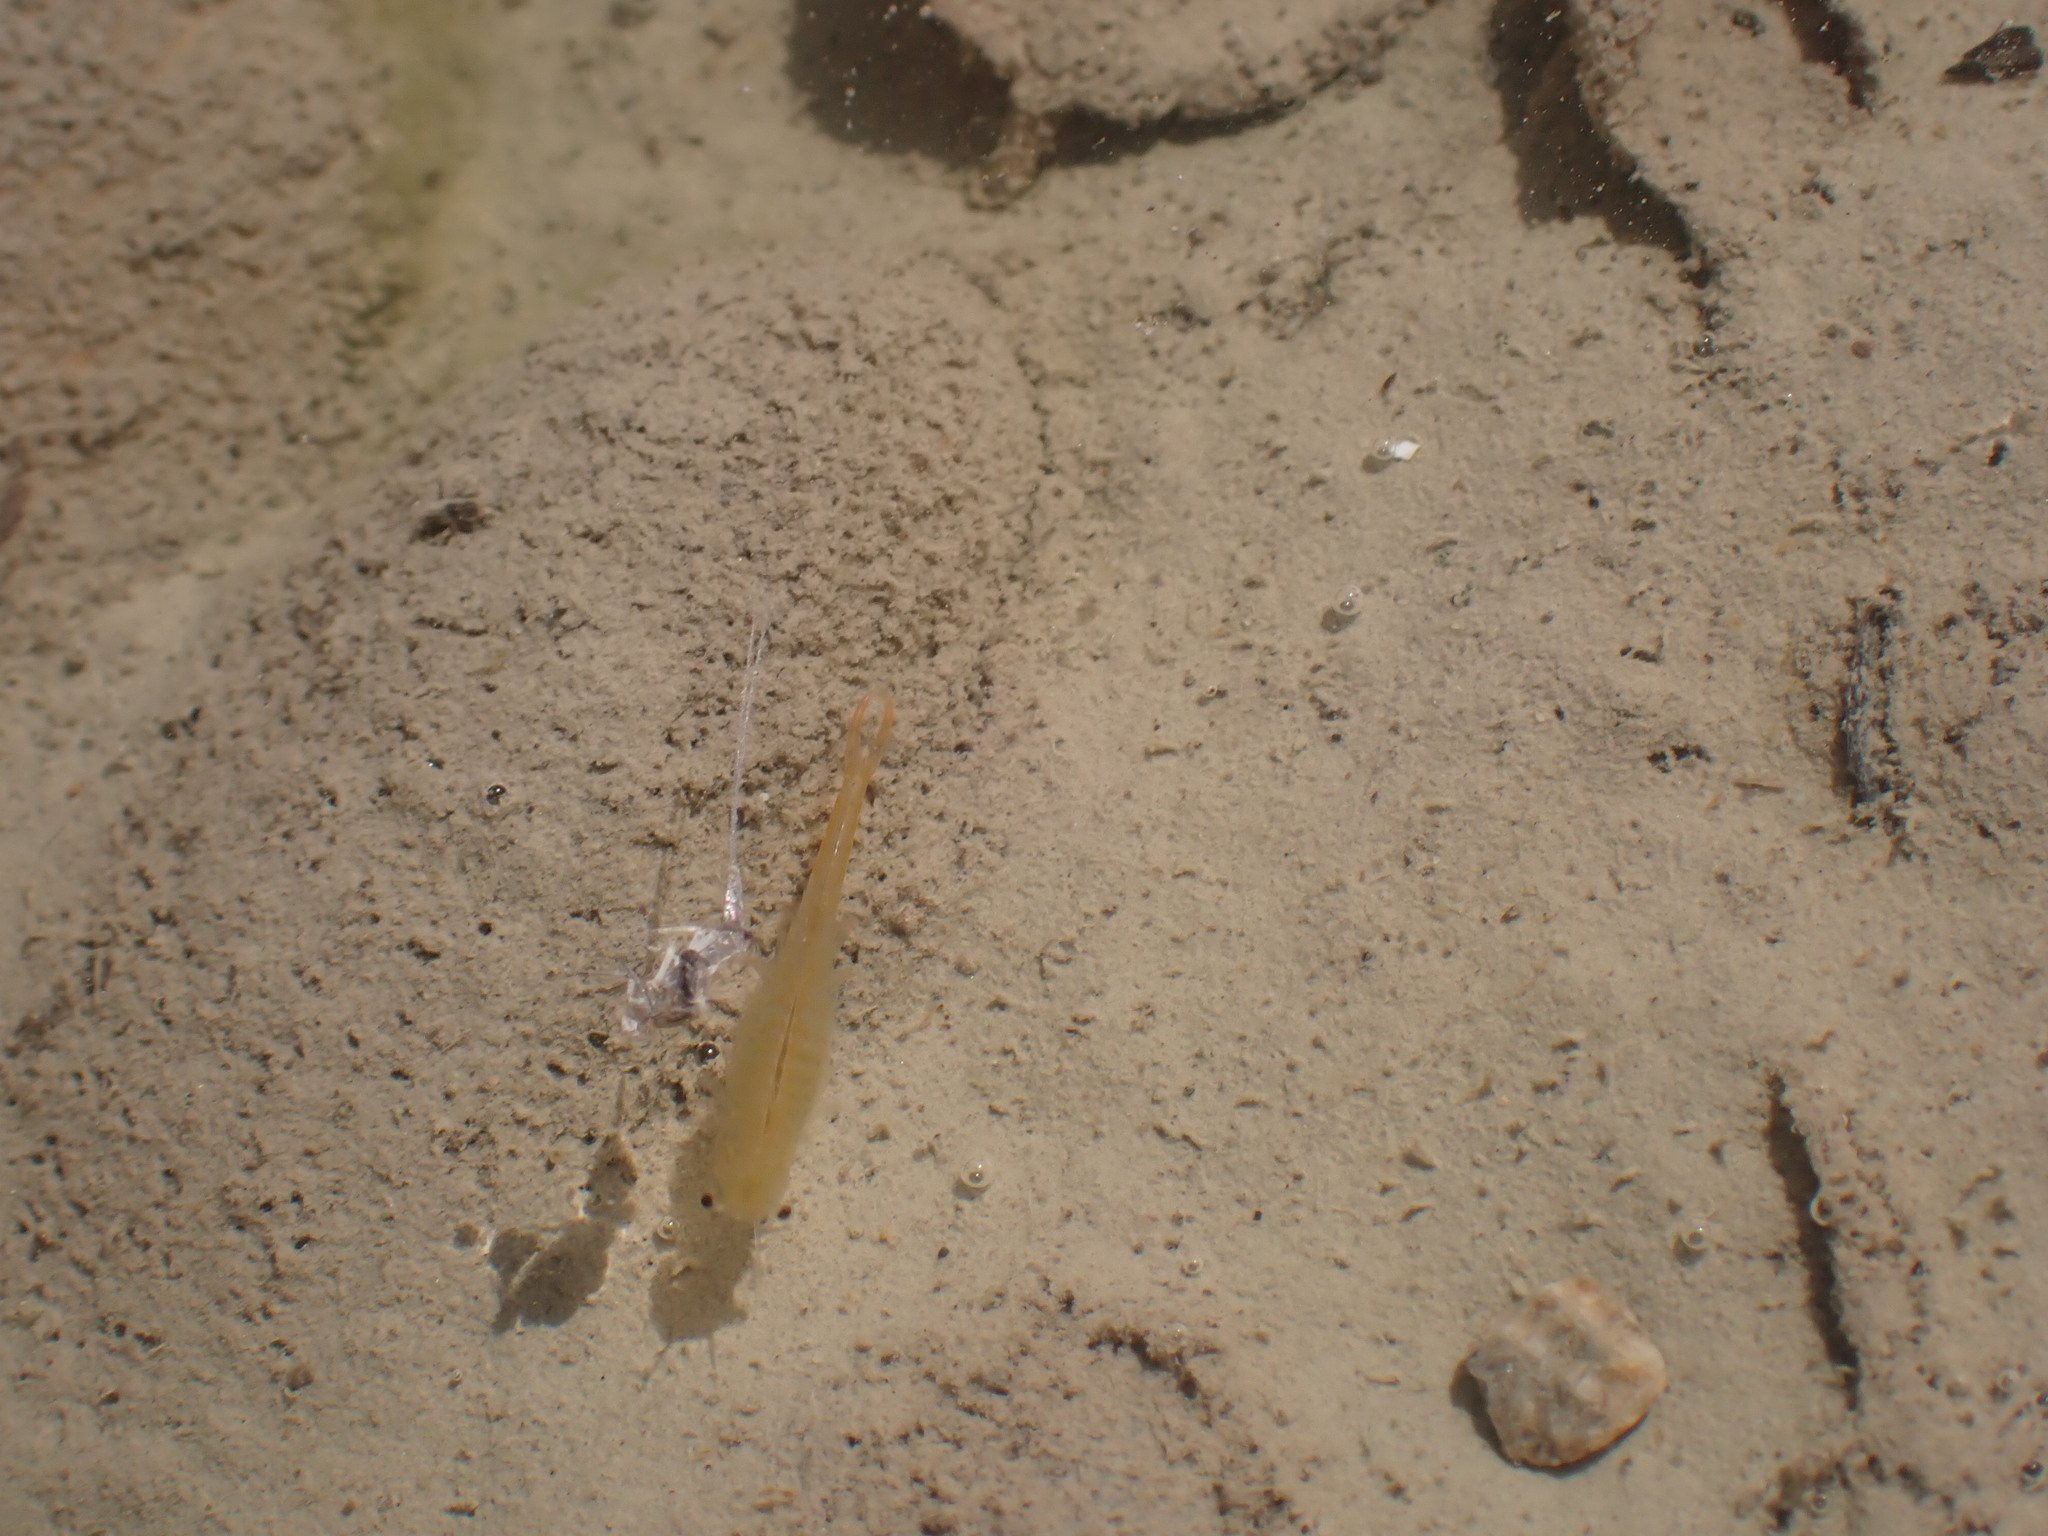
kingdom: Animalia
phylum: Arthropoda
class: Branchiopoda
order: Anostraca
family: Branchipodidae
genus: Branchipus
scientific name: Branchipus schaefferi
